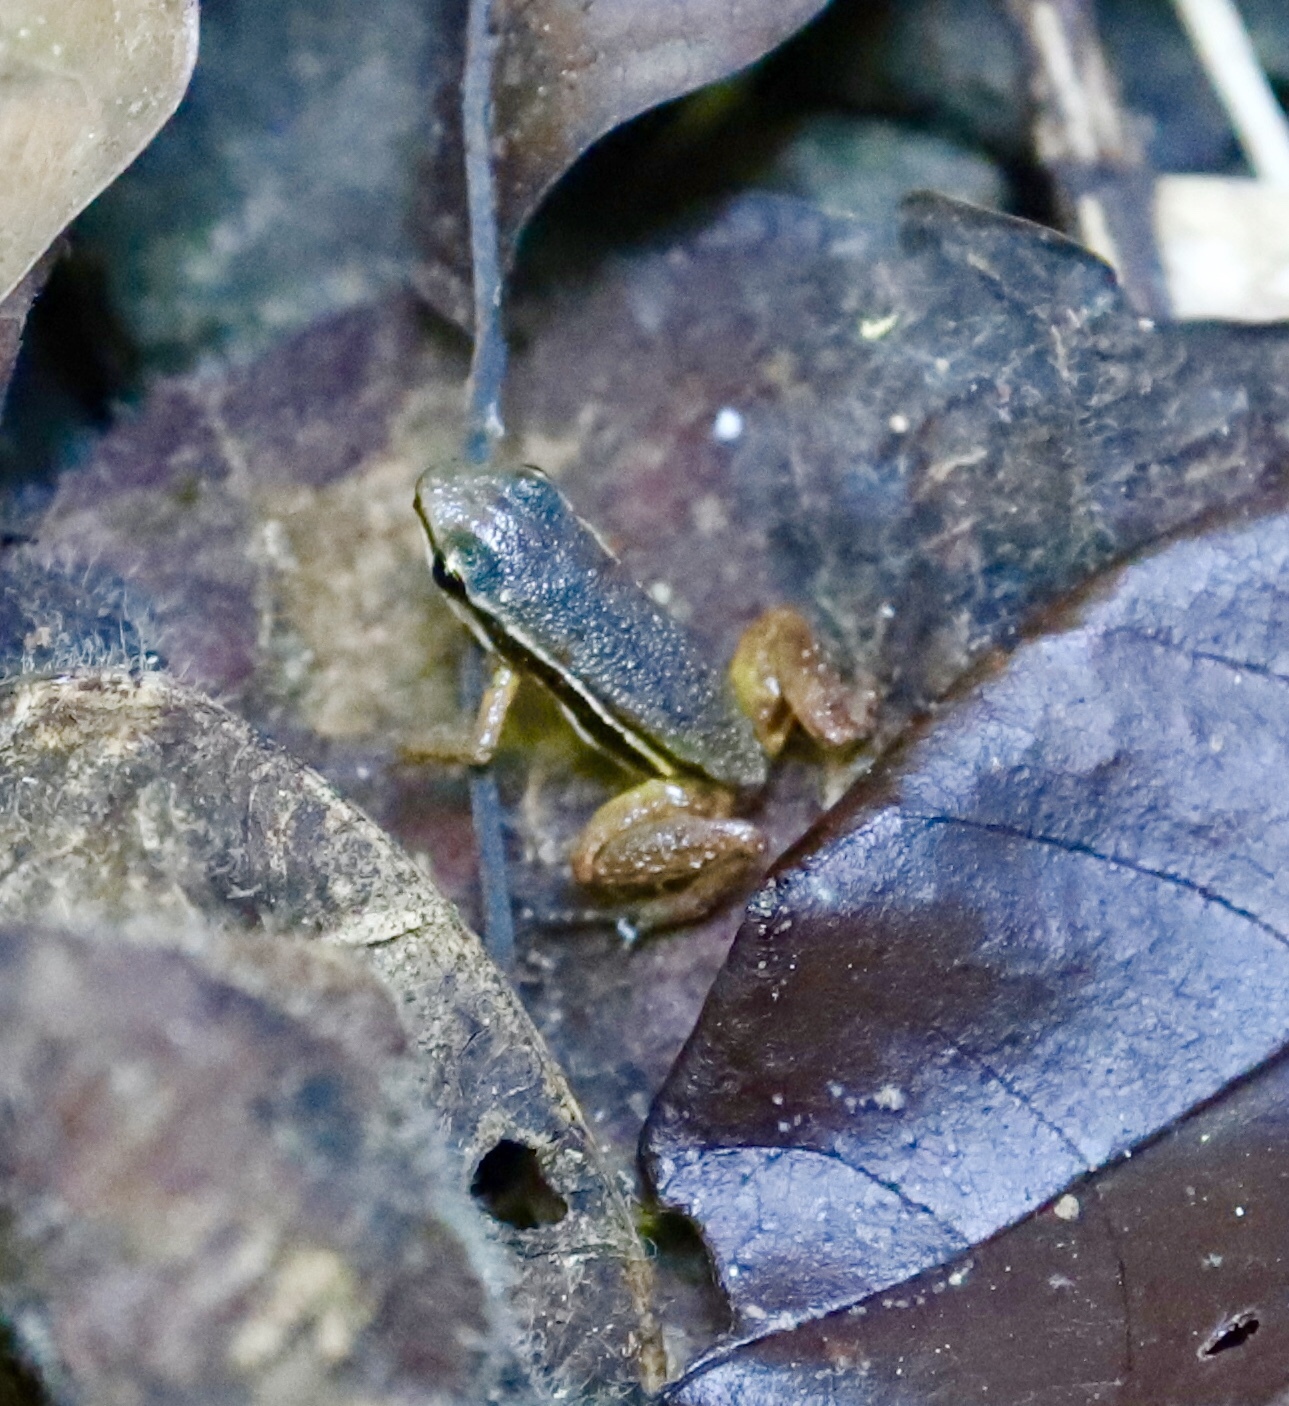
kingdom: Animalia
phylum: Chordata
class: Amphibia
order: Anura
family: Dendrobatidae
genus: Silverstoneia
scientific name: Silverstoneia flotator
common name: Rainforest rocket frog
